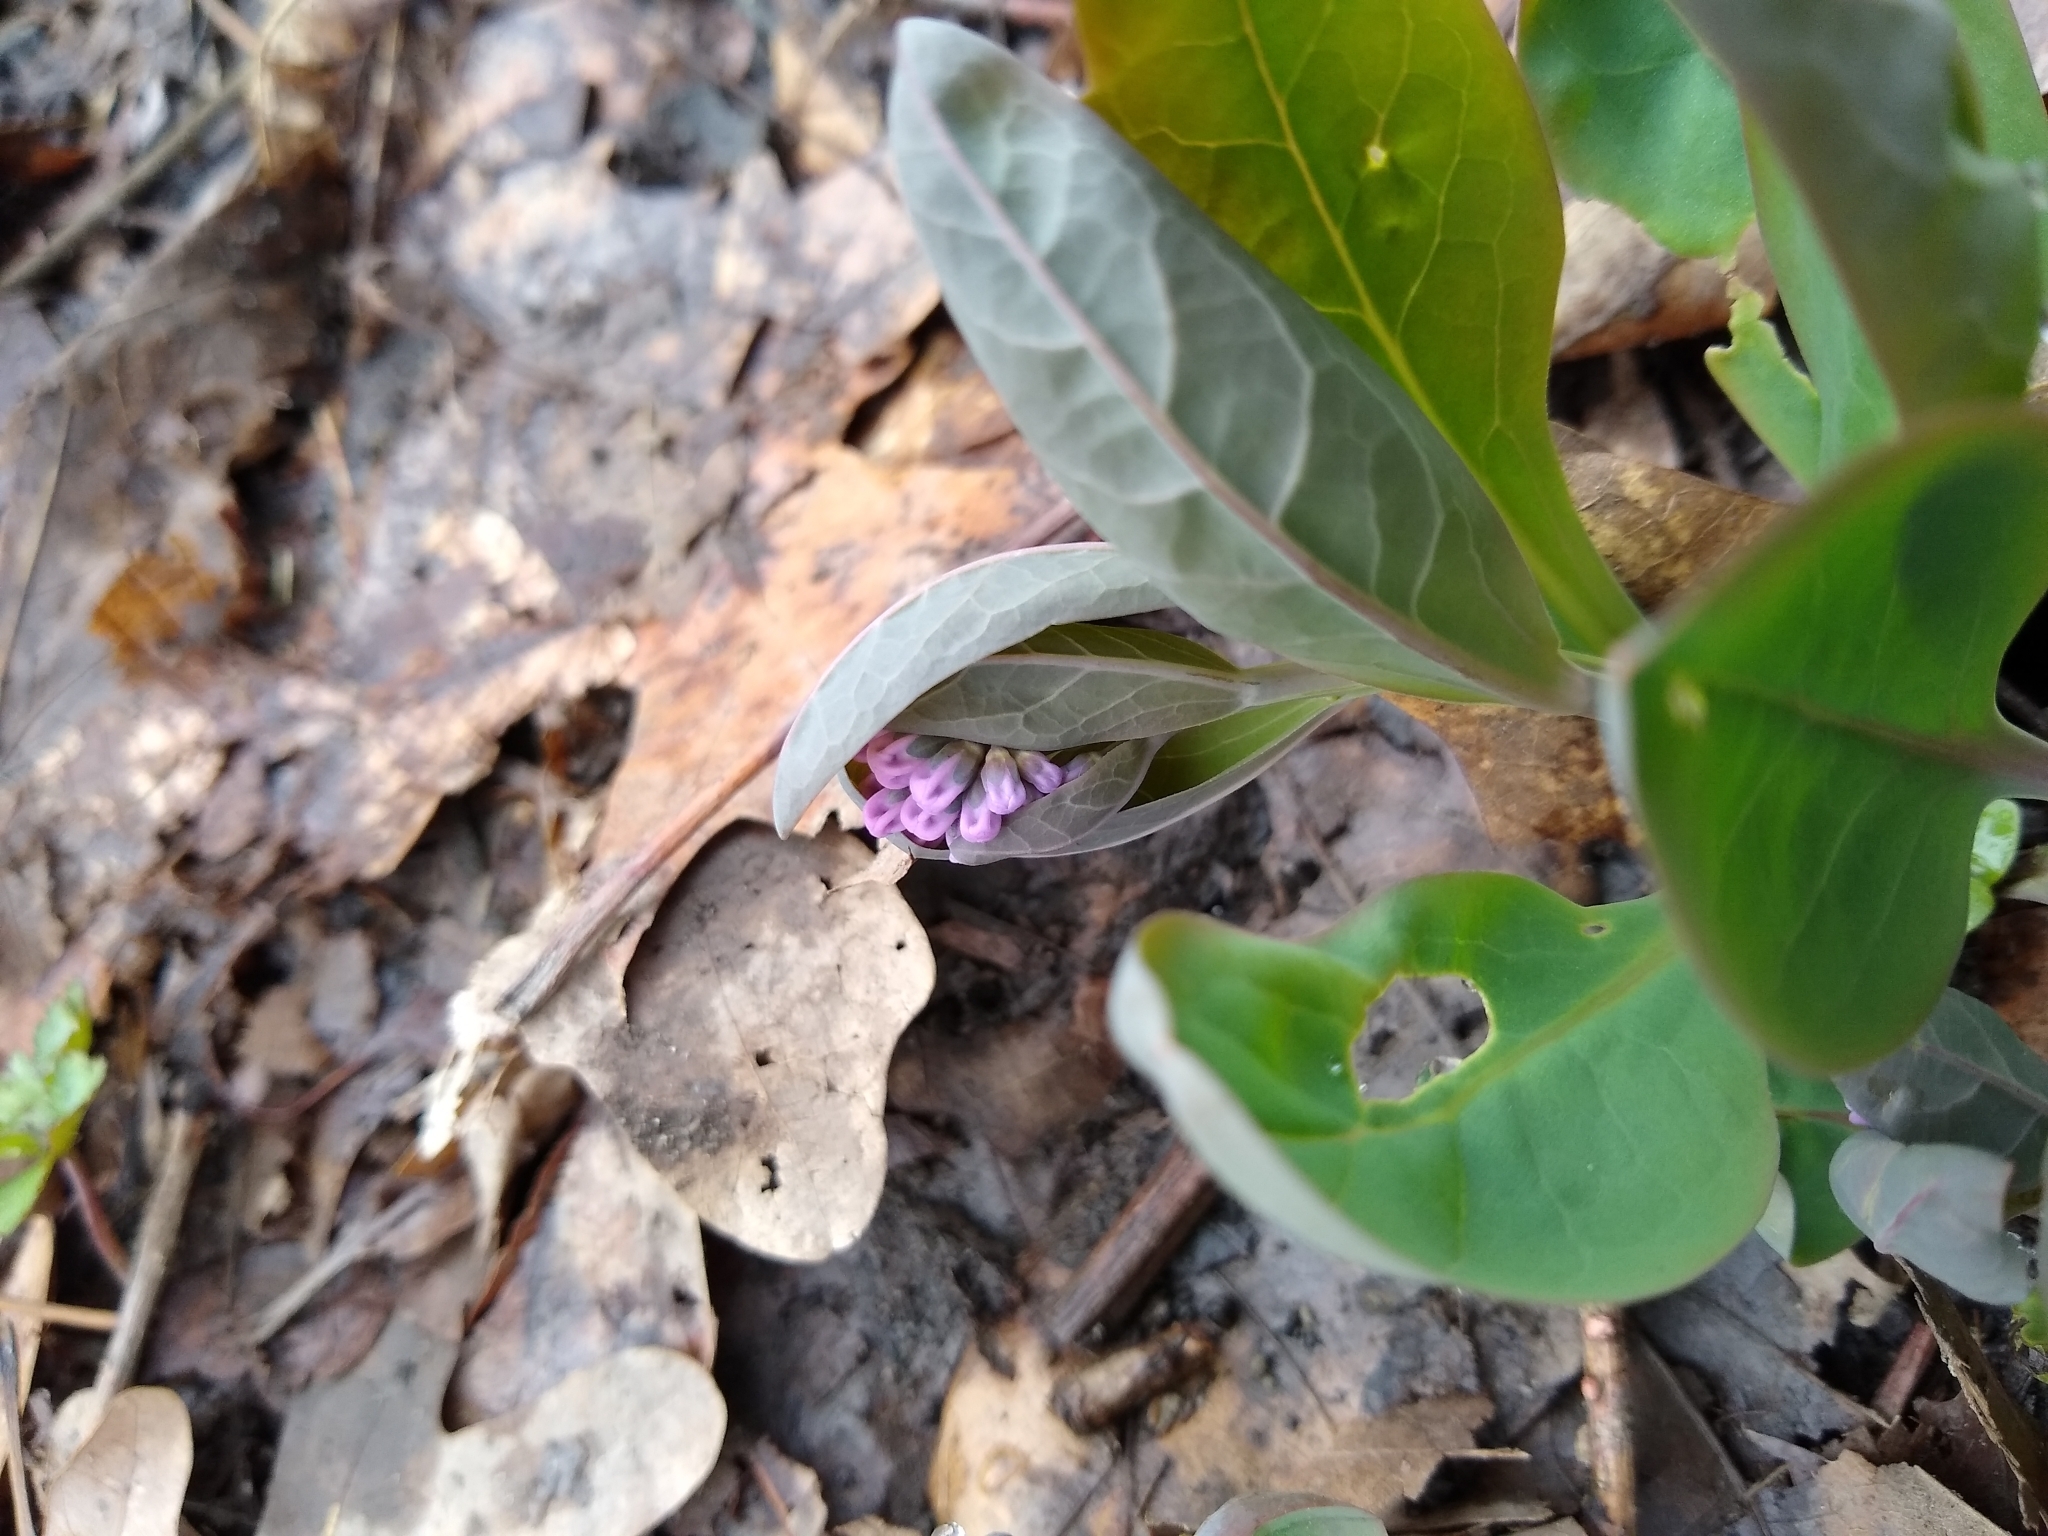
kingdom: Plantae
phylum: Tracheophyta
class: Magnoliopsida
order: Boraginales
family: Boraginaceae
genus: Mertensia
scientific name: Mertensia virginica
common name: Virginia bluebells
